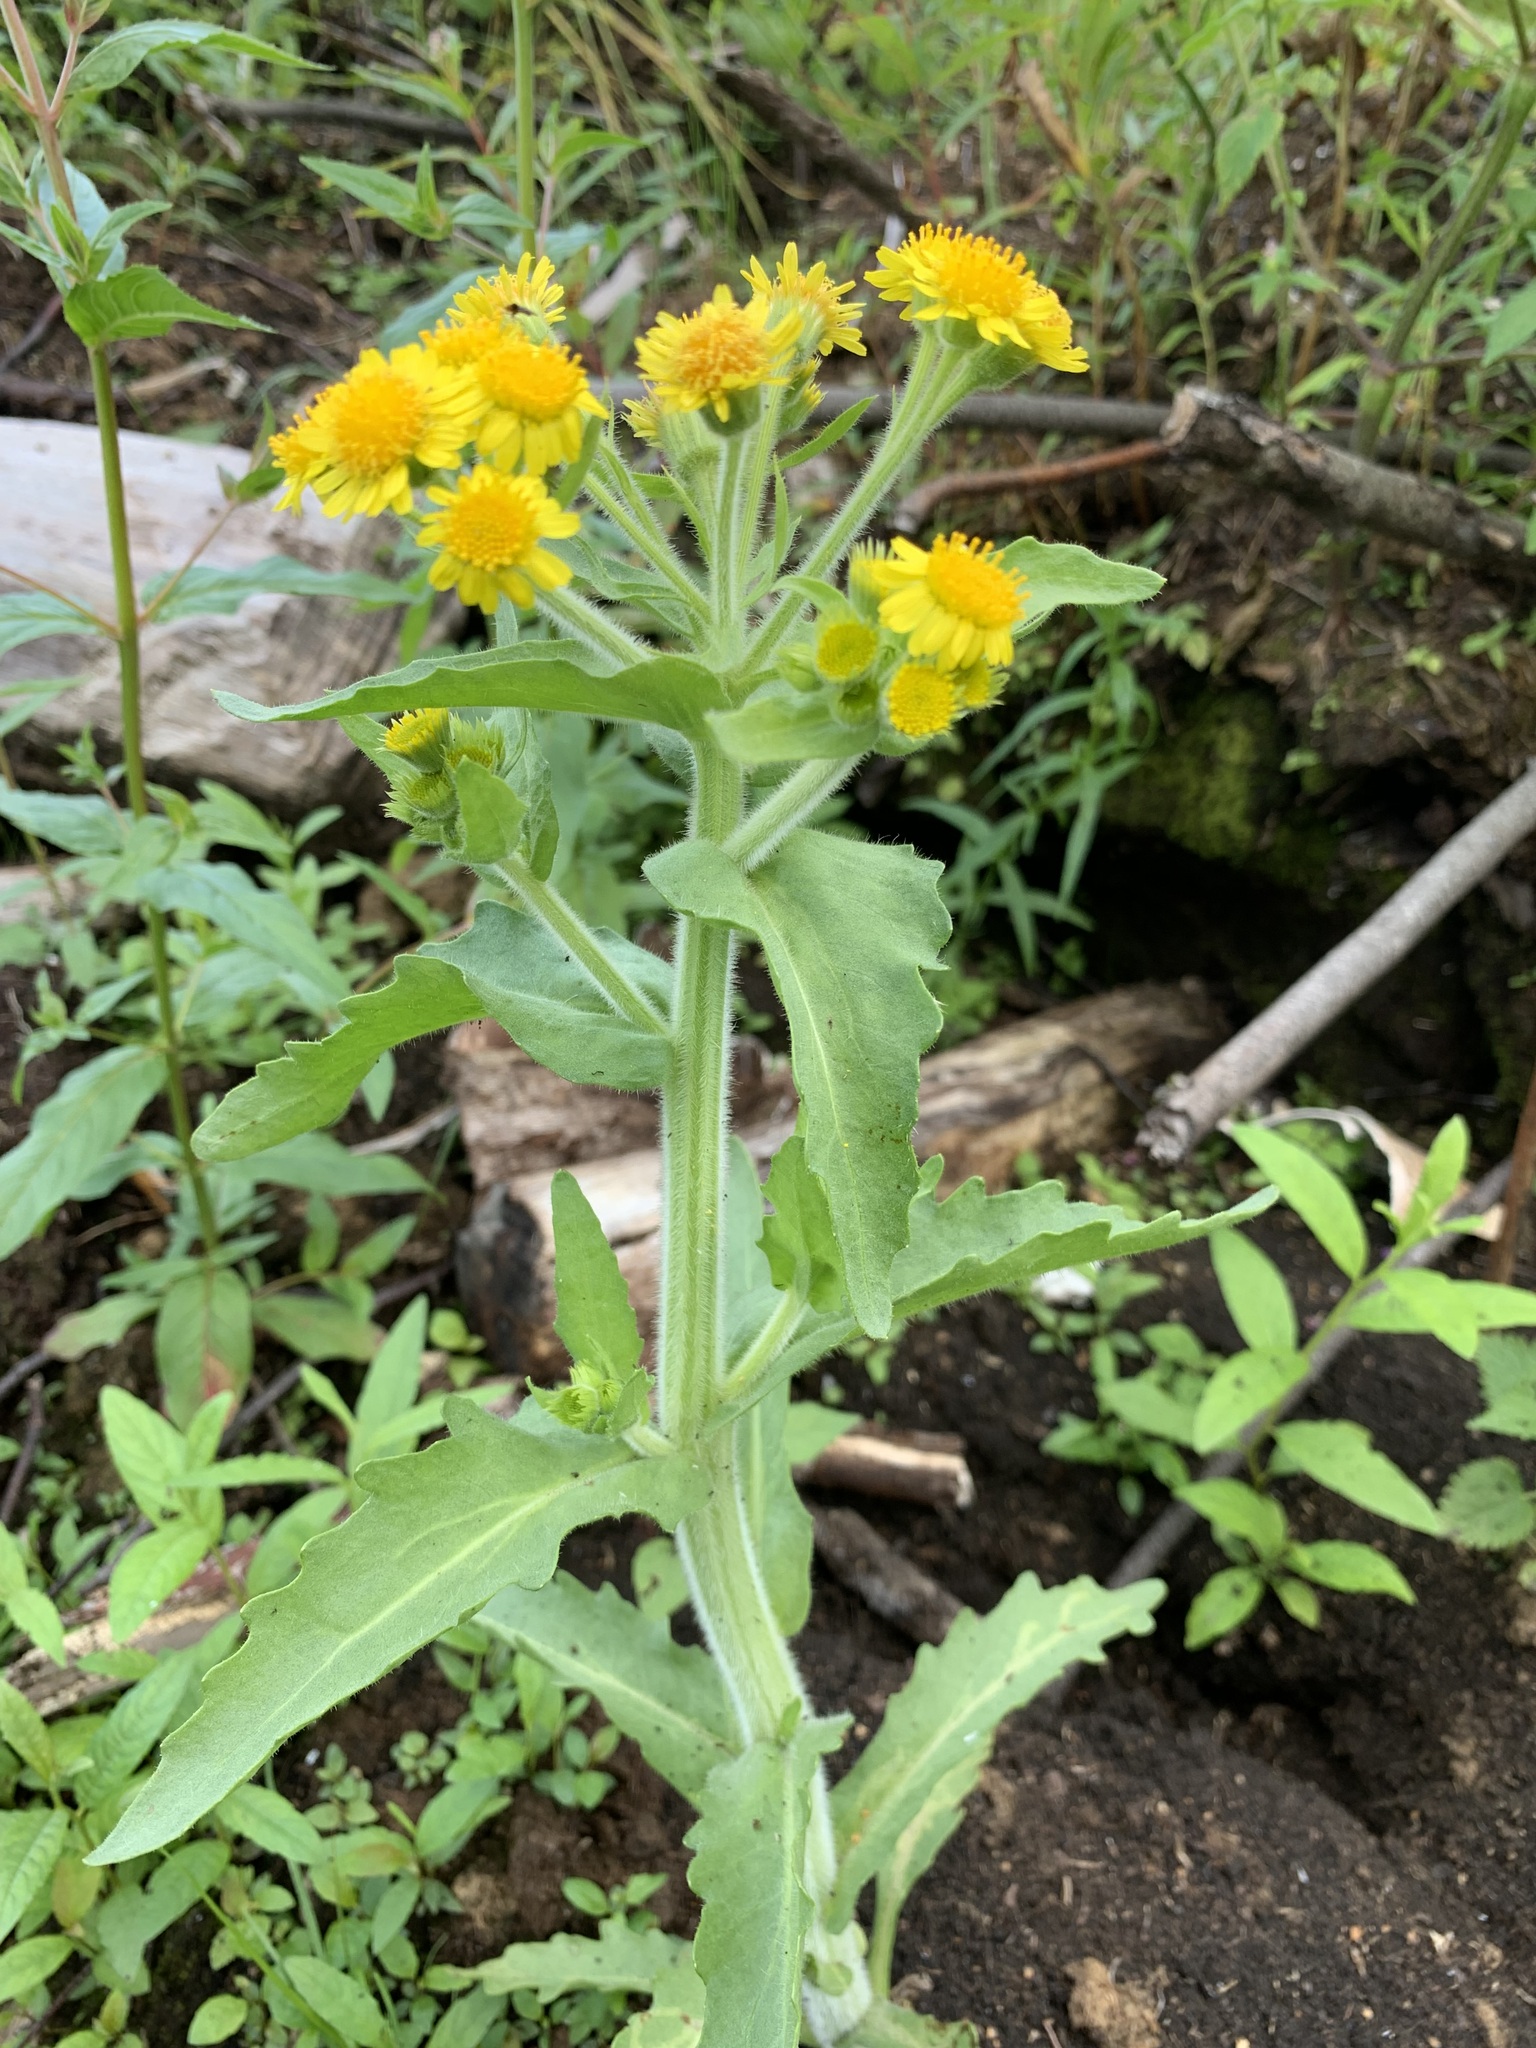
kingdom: Plantae
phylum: Tracheophyta
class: Magnoliopsida
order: Asterales
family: Asteraceae
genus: Tephroseris
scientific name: Tephroseris palustris
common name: Marsh fleawort
